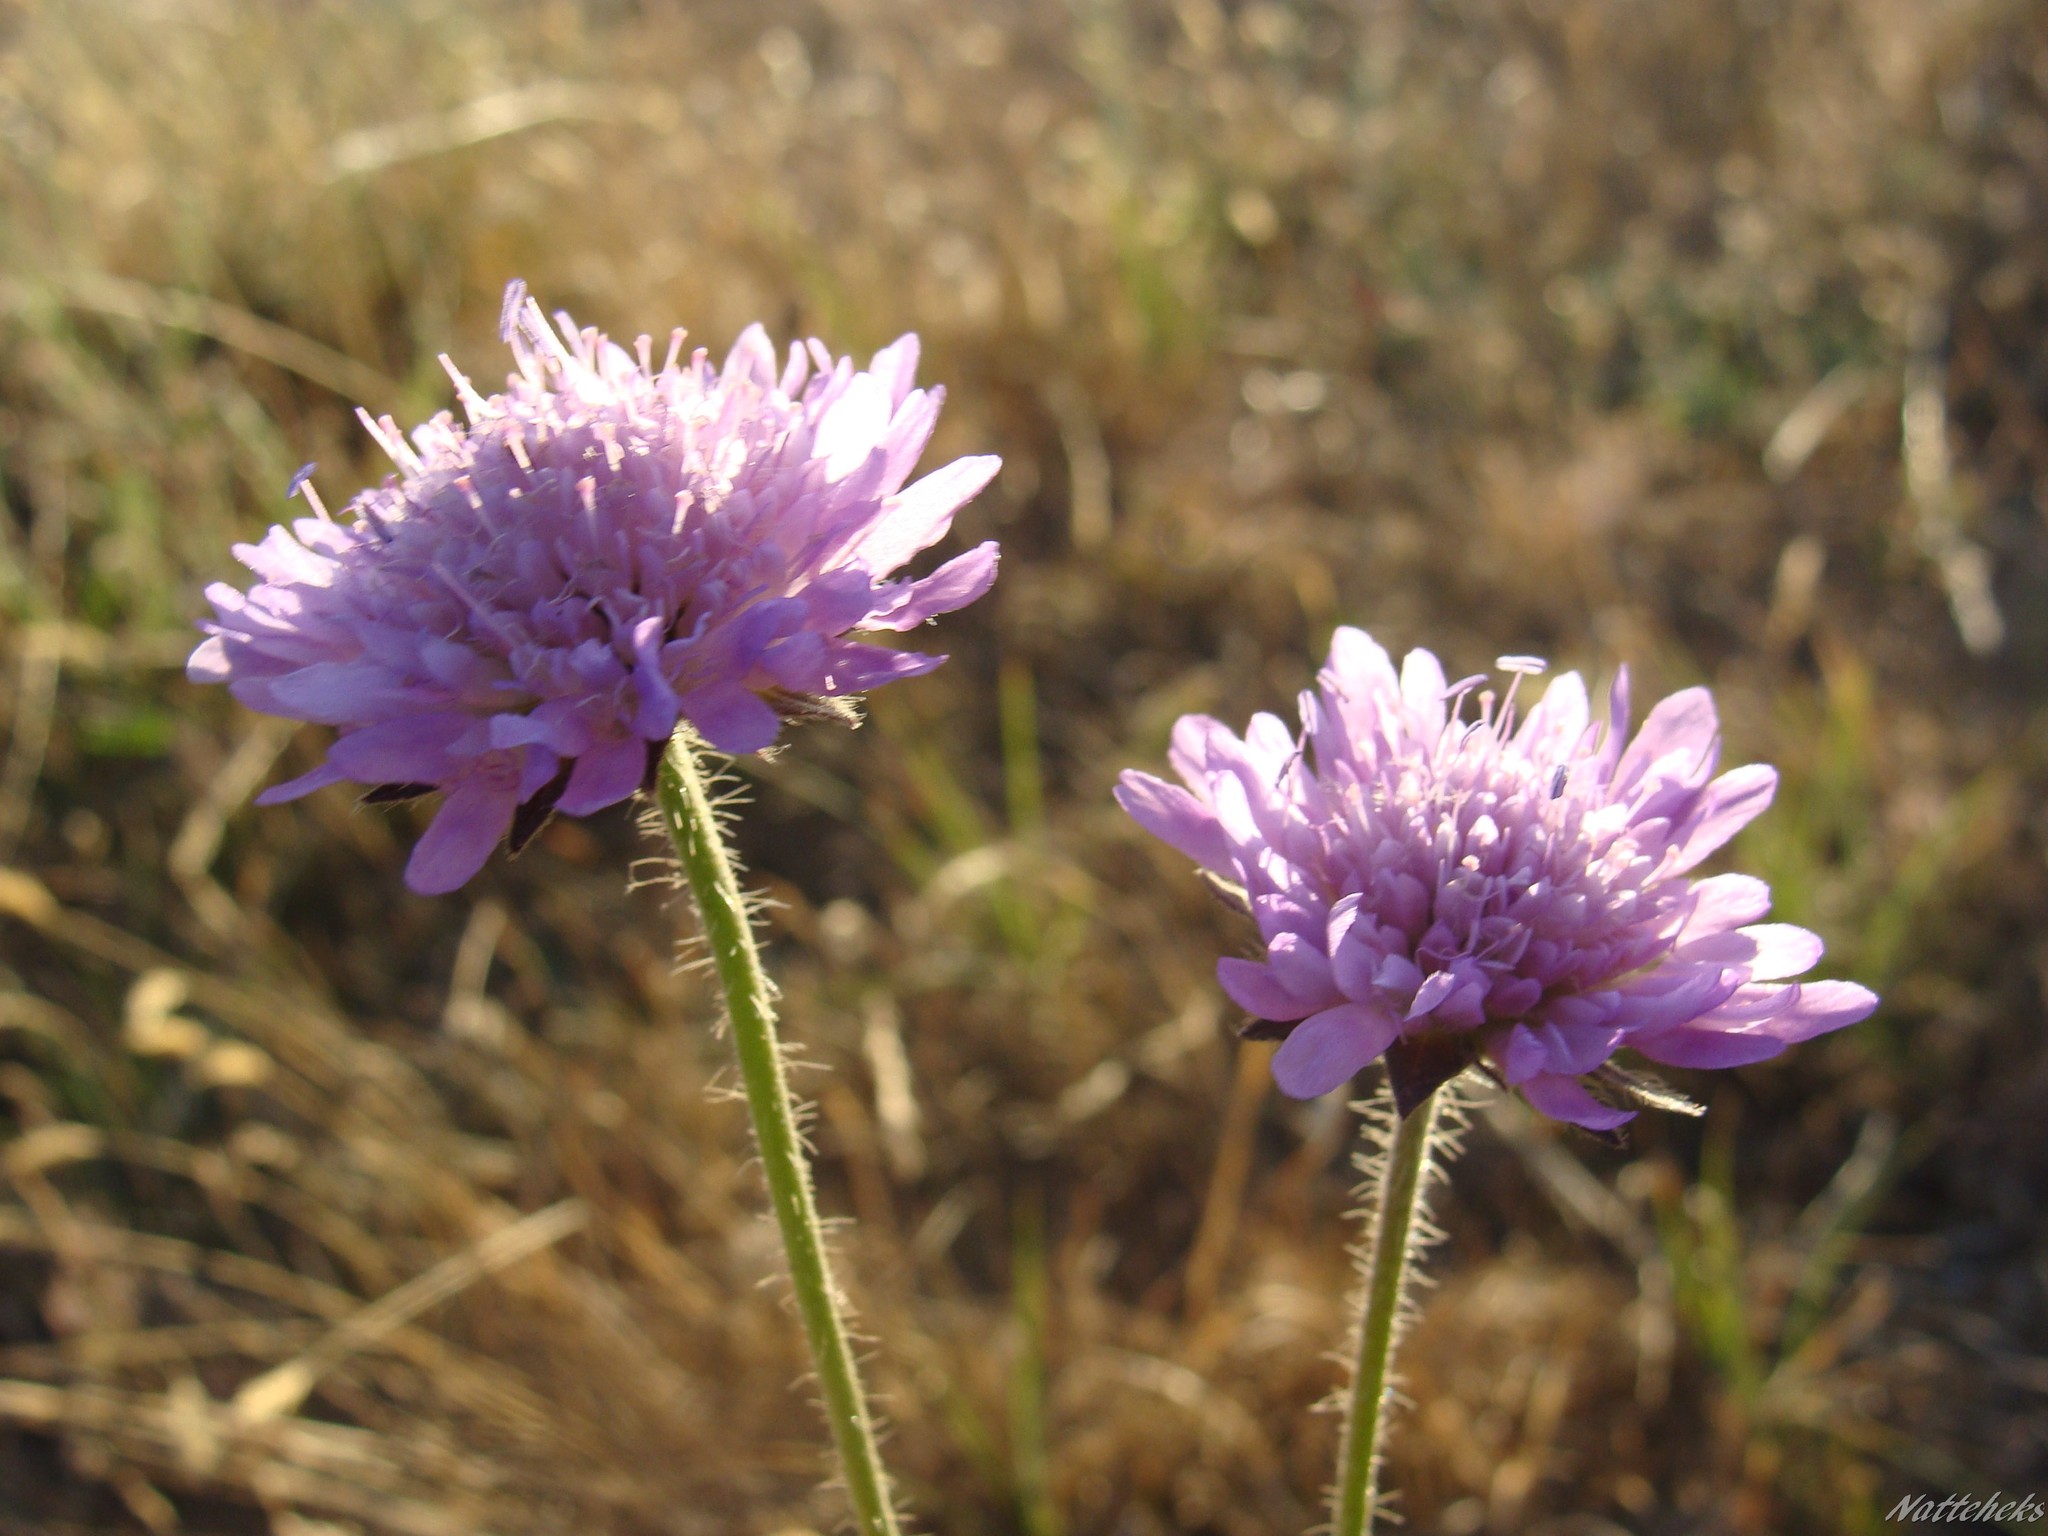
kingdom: Plantae
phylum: Tracheophyta
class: Magnoliopsida
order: Dipsacales
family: Caprifoliaceae
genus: Knautia
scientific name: Knautia arvensis
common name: Field scabiosa
